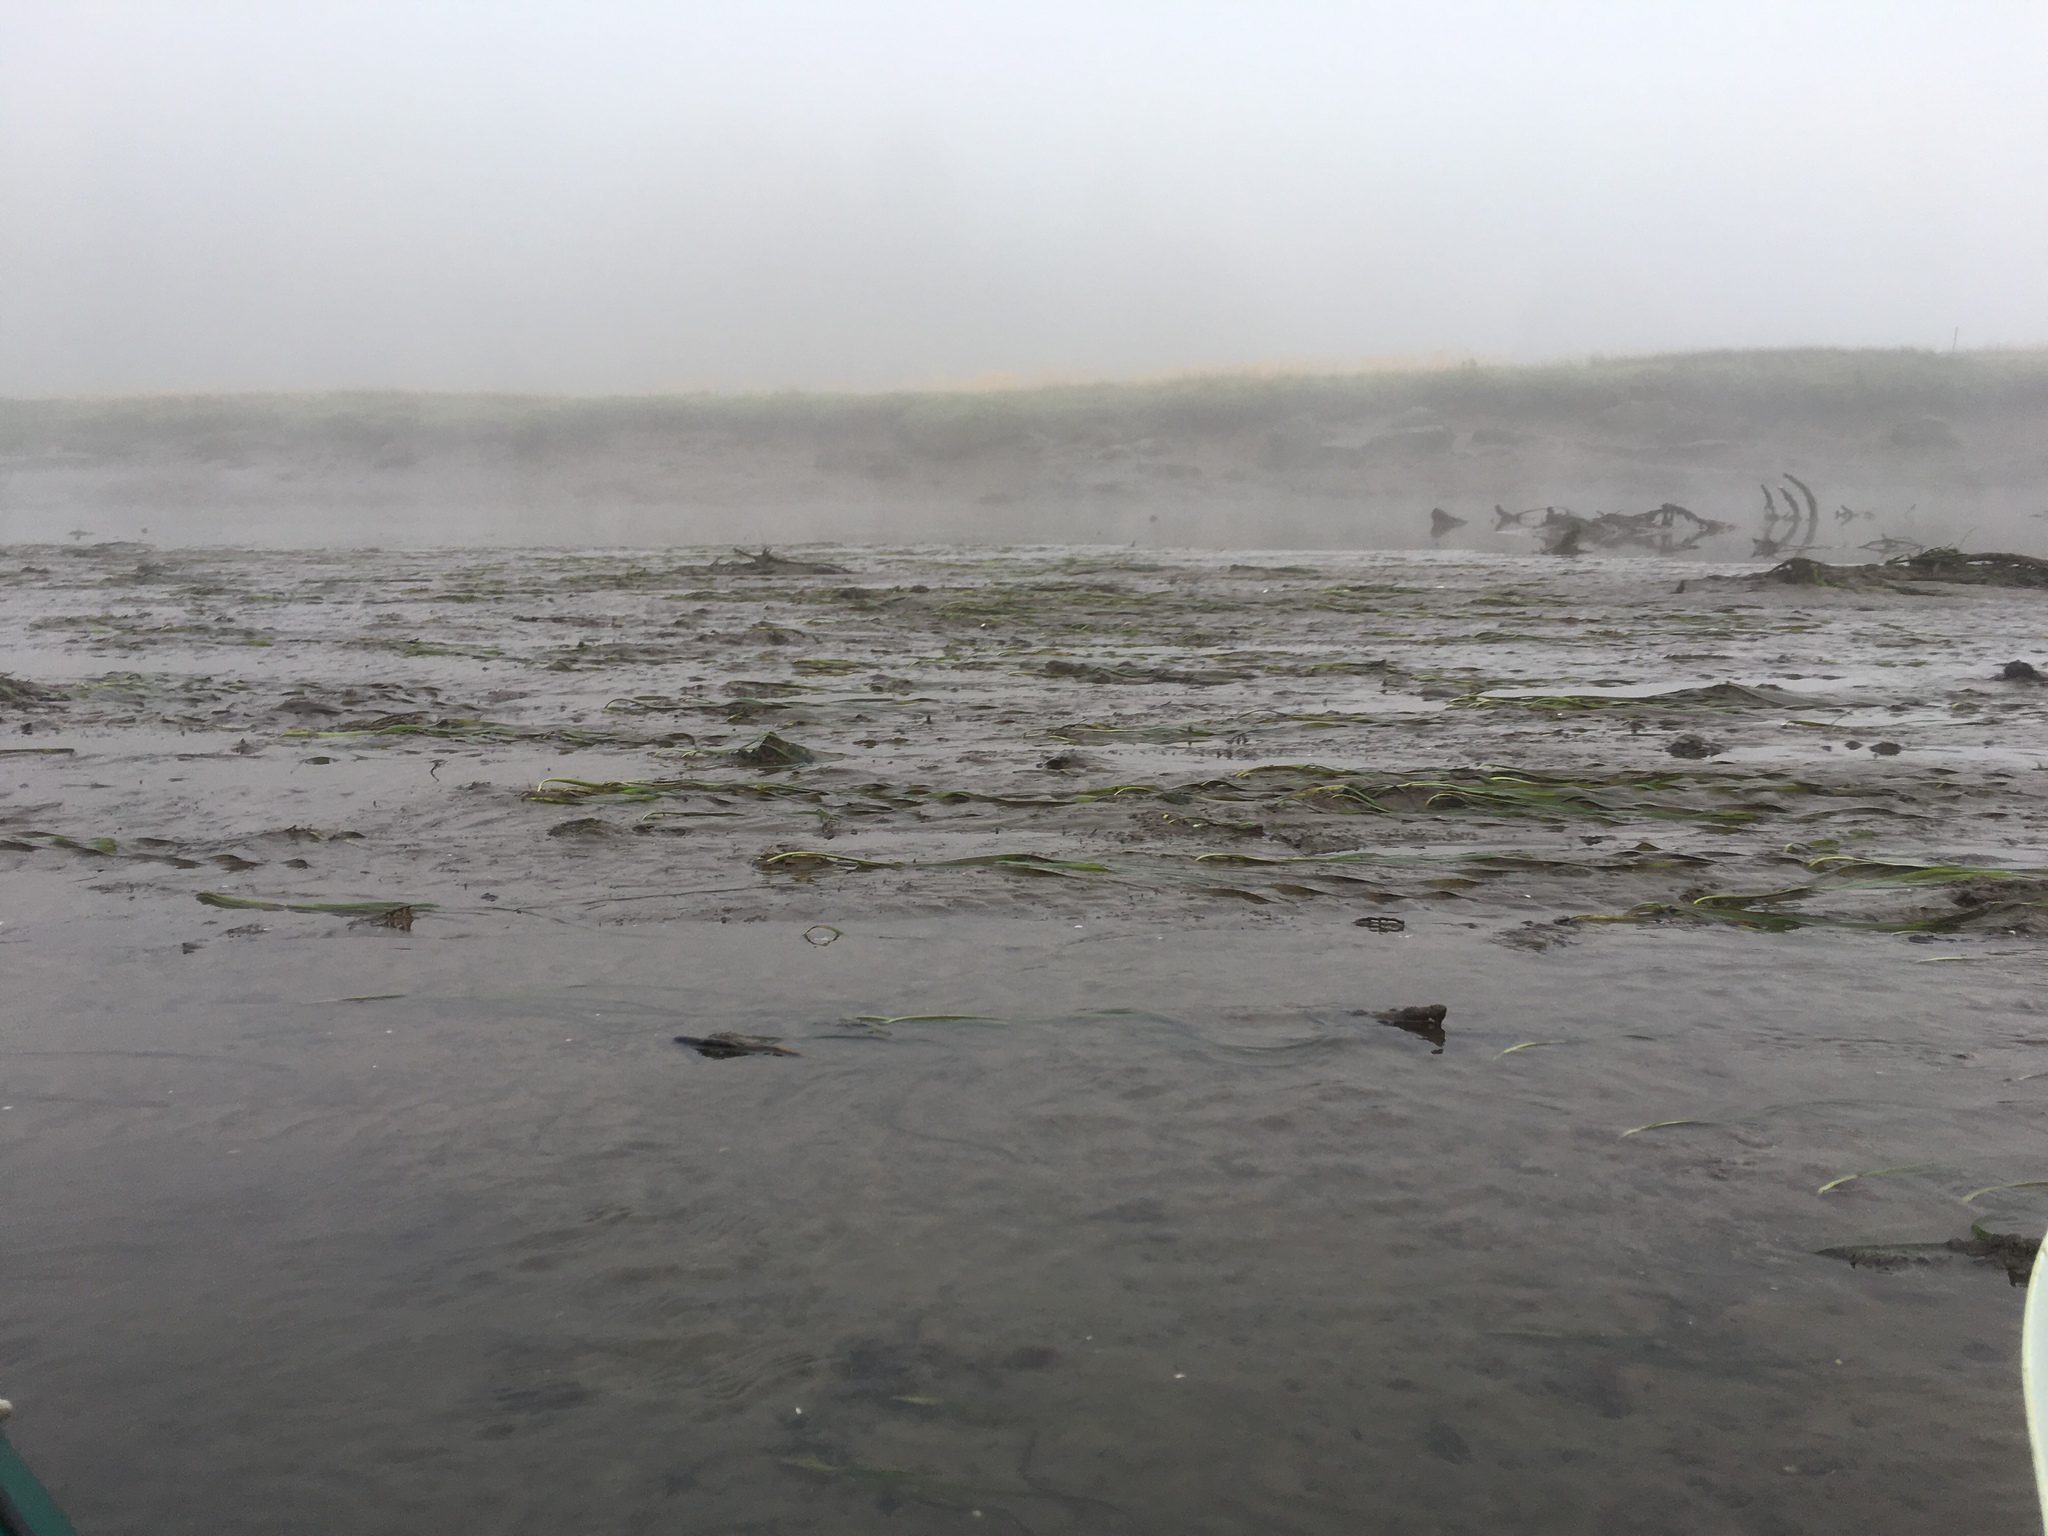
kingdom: Plantae
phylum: Tracheophyta
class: Liliopsida
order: Alismatales
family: Zosteraceae
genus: Zostera
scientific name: Zostera marina
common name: Eelgrass
